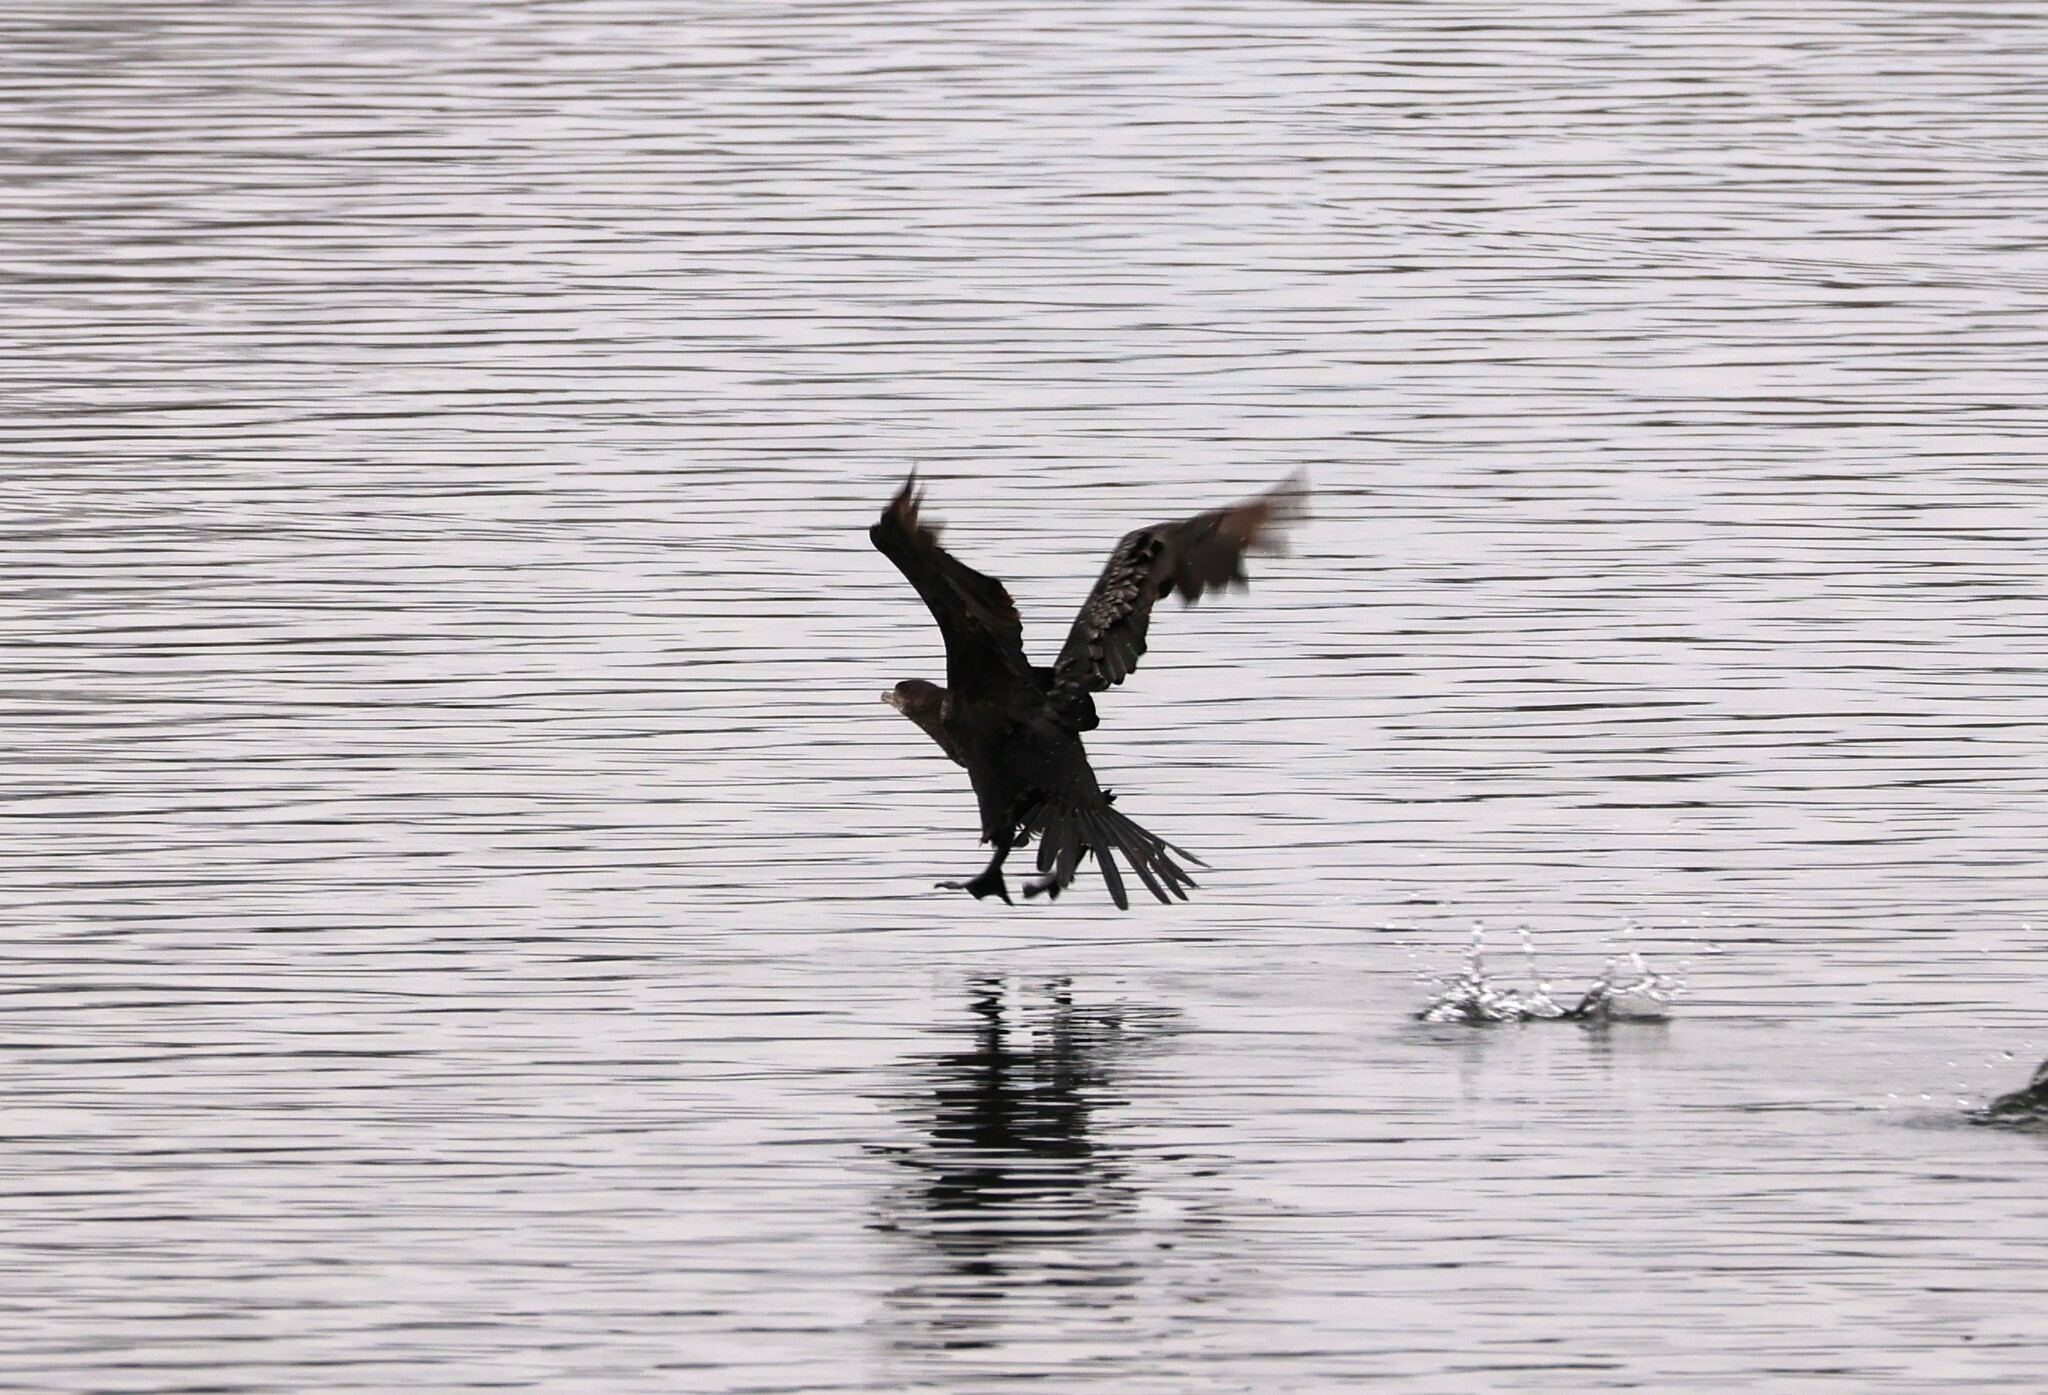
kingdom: Animalia
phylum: Chordata
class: Aves
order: Suliformes
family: Phalacrocoracidae
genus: Phalacrocorax
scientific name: Phalacrocorax brasilianus
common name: Neotropic cormorant
